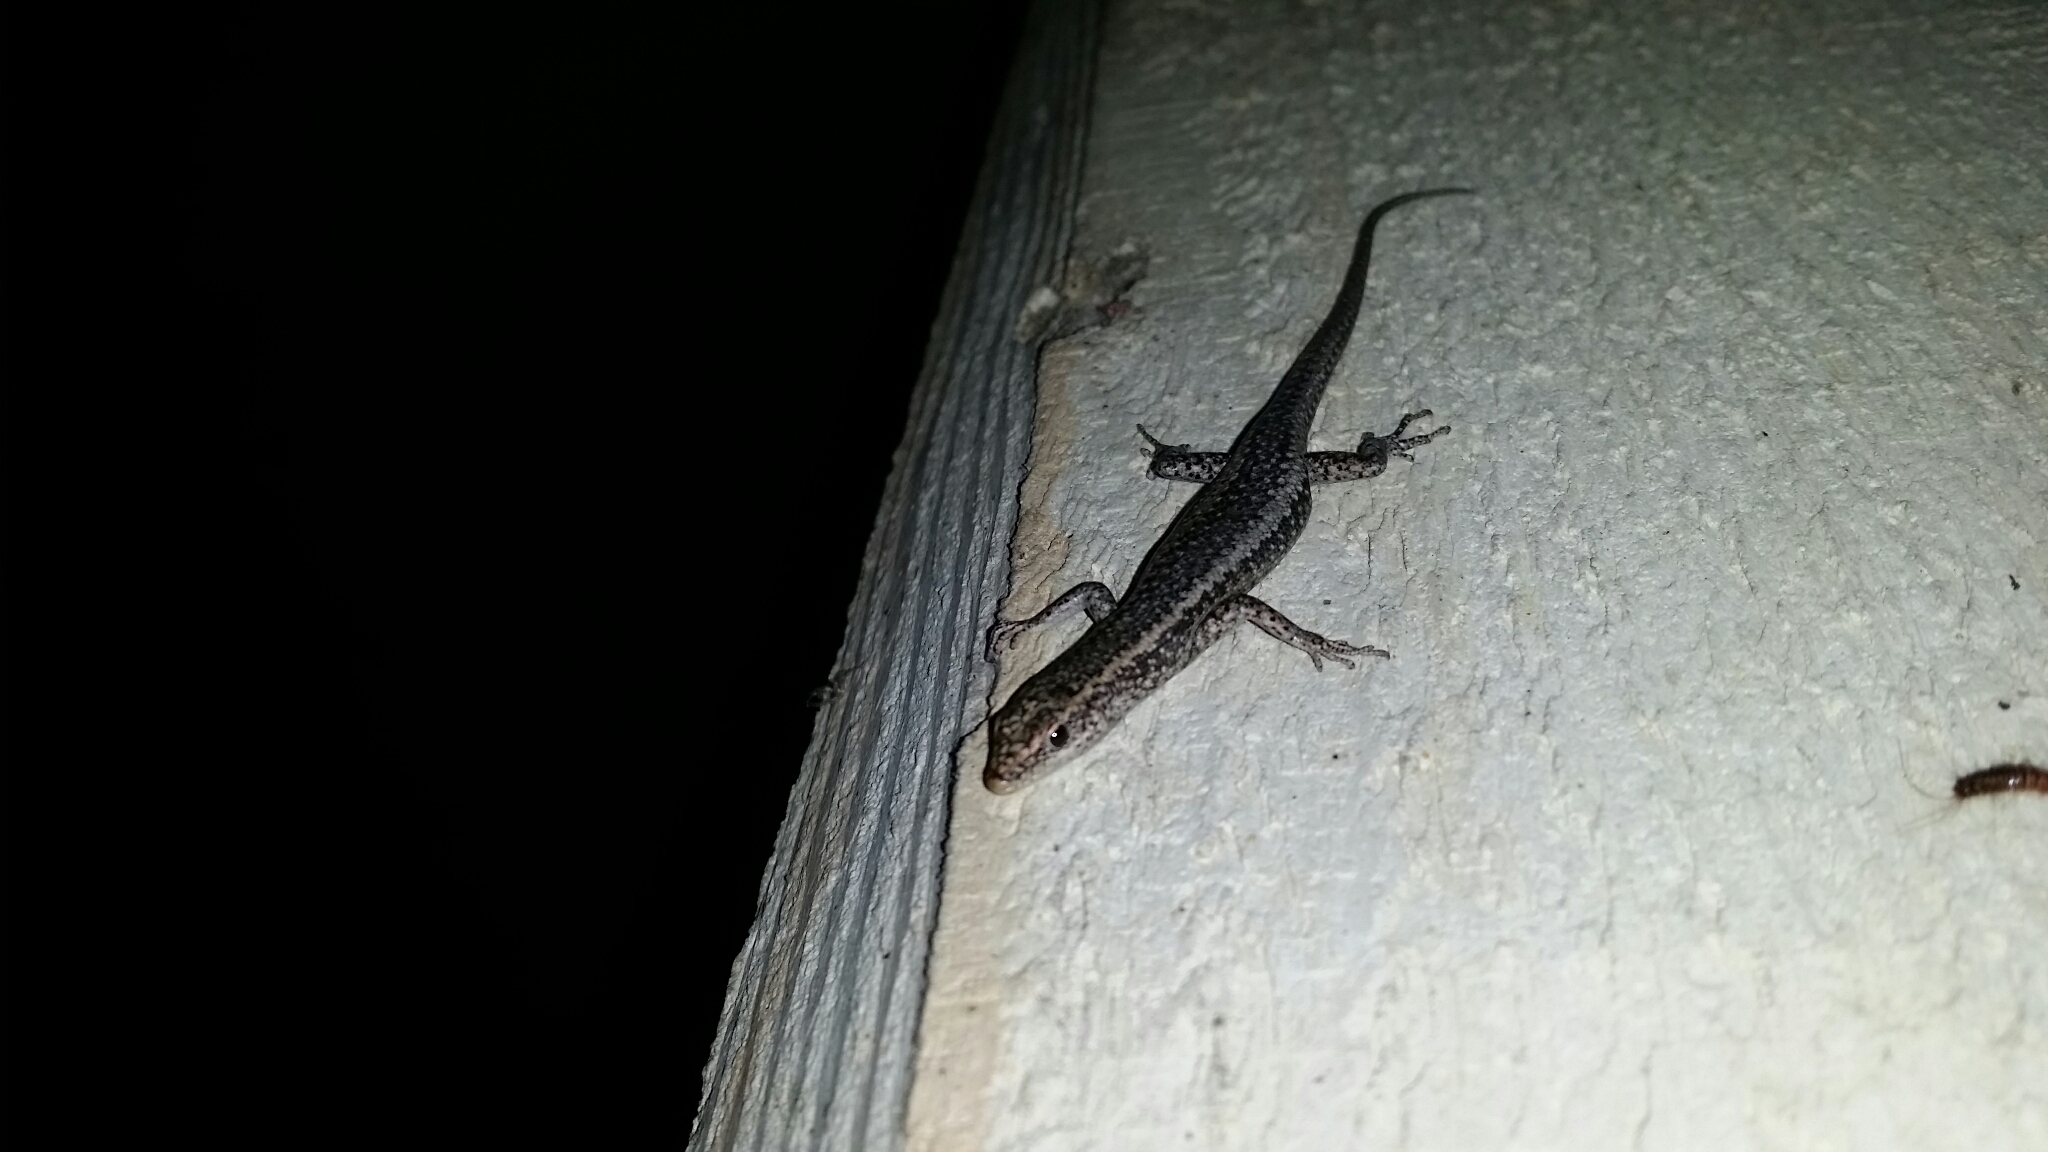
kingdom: Animalia
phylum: Chordata
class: Squamata
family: Scincidae
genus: Cryptoblepharus
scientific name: Cryptoblepharus buchananii
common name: Buchanan's snake-eyed skink
